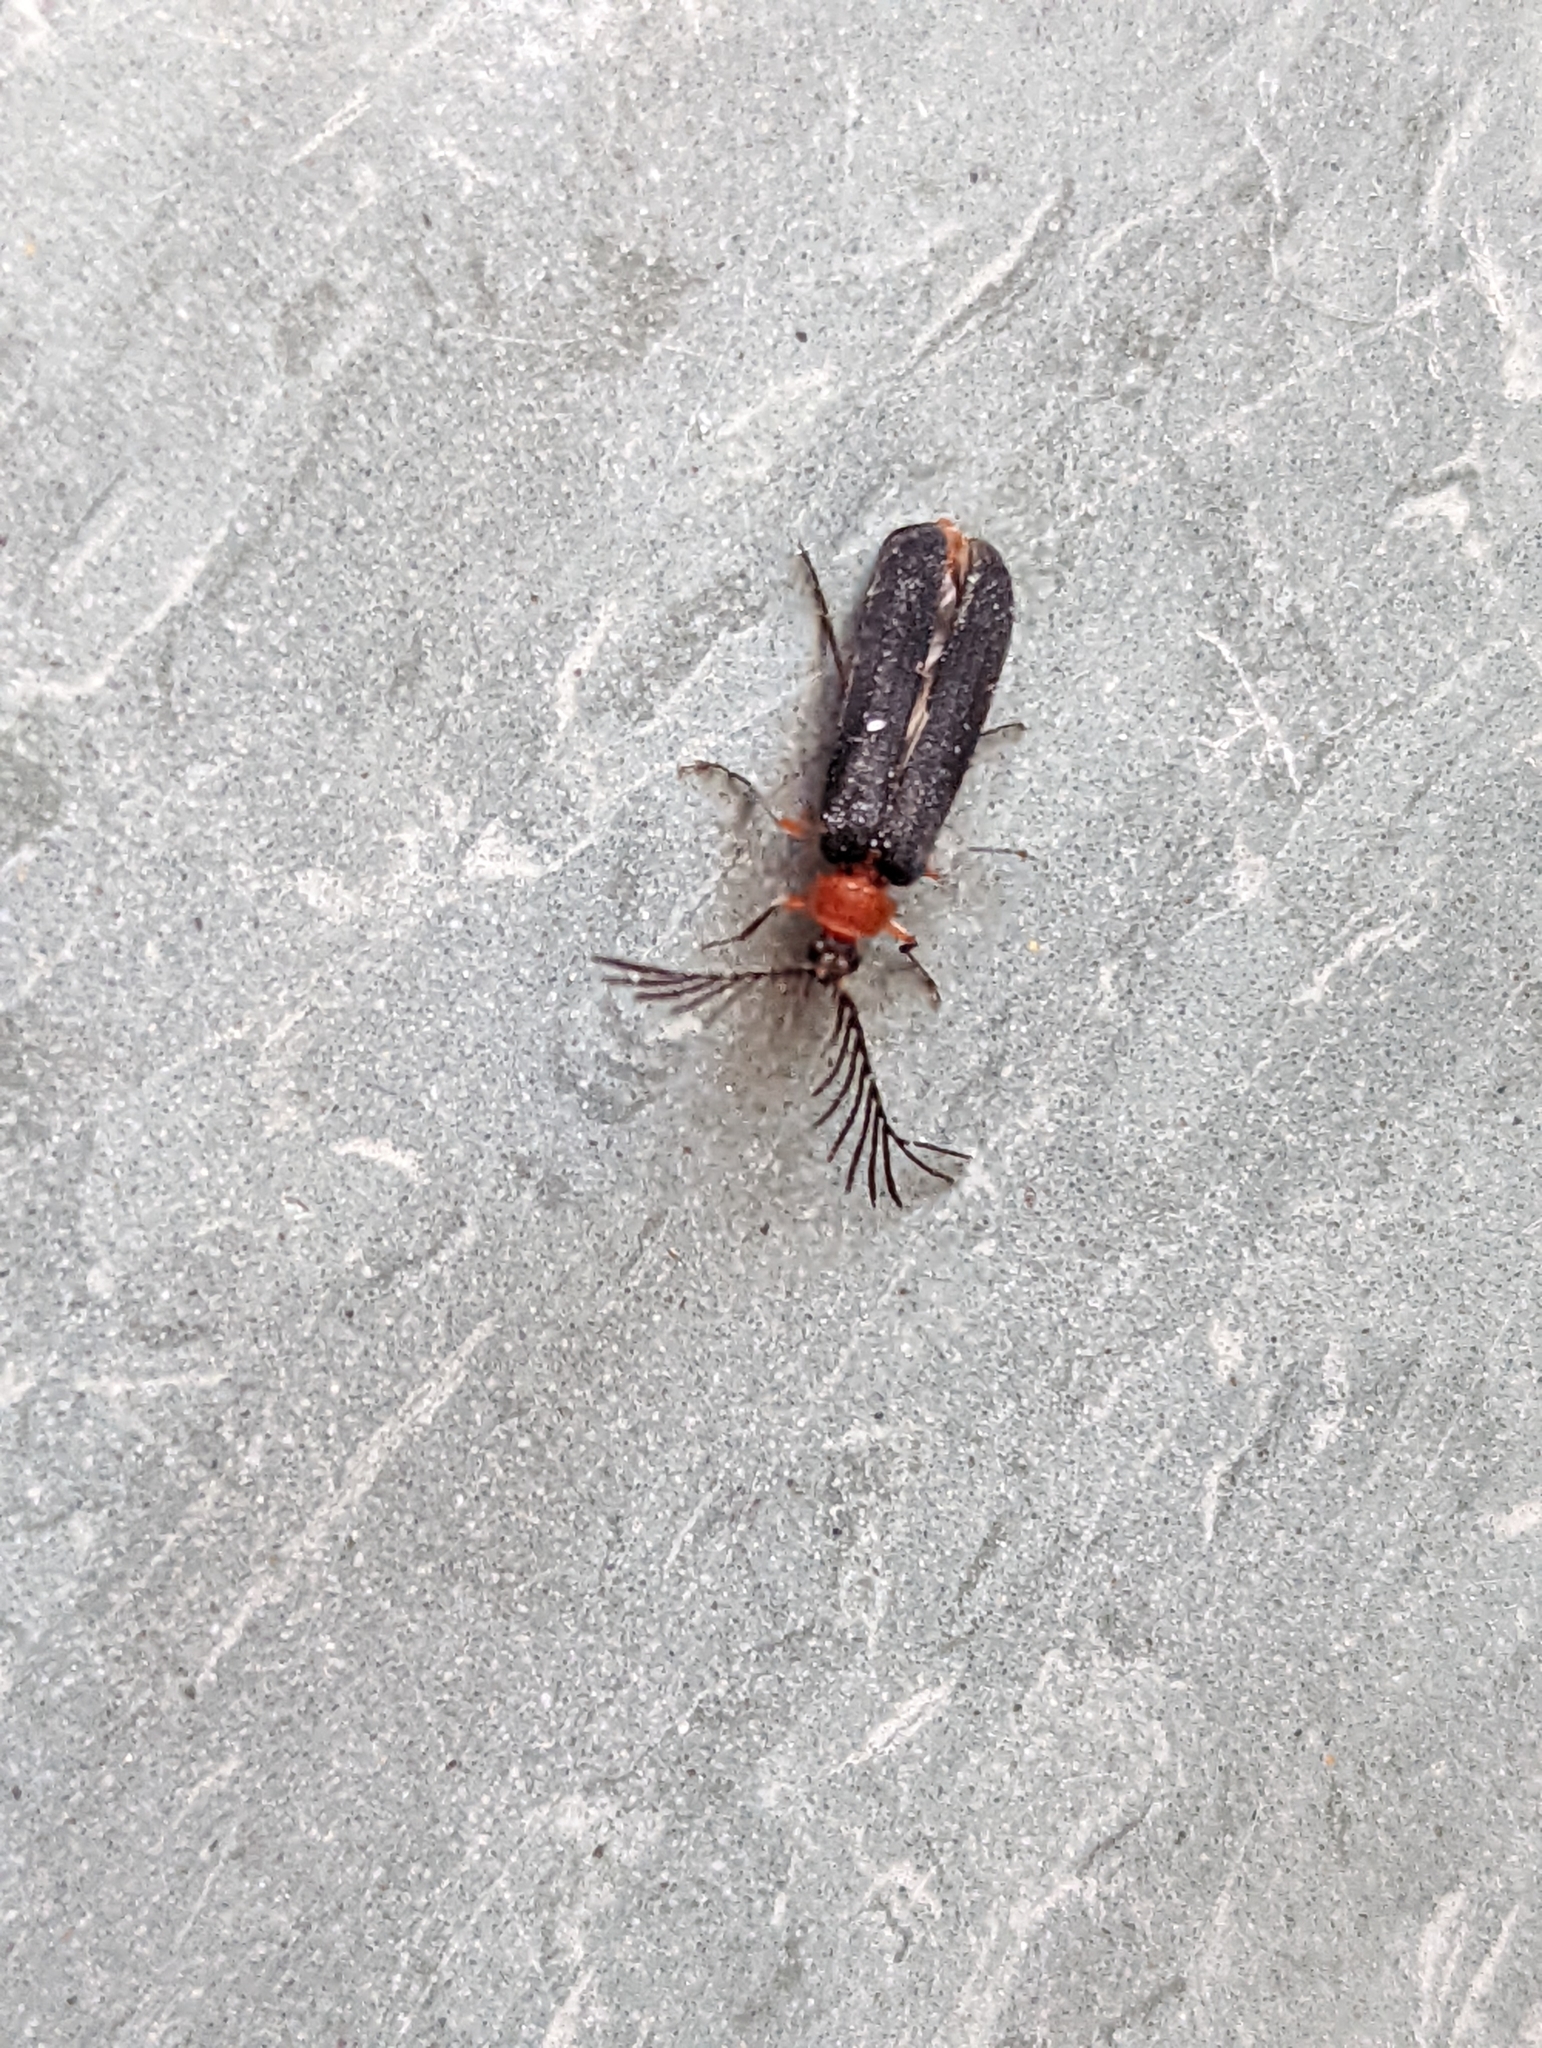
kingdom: Animalia
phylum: Arthropoda
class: Insecta
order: Coleoptera
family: Lampyridae
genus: Pterotus
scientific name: Pterotus obscuripennis
